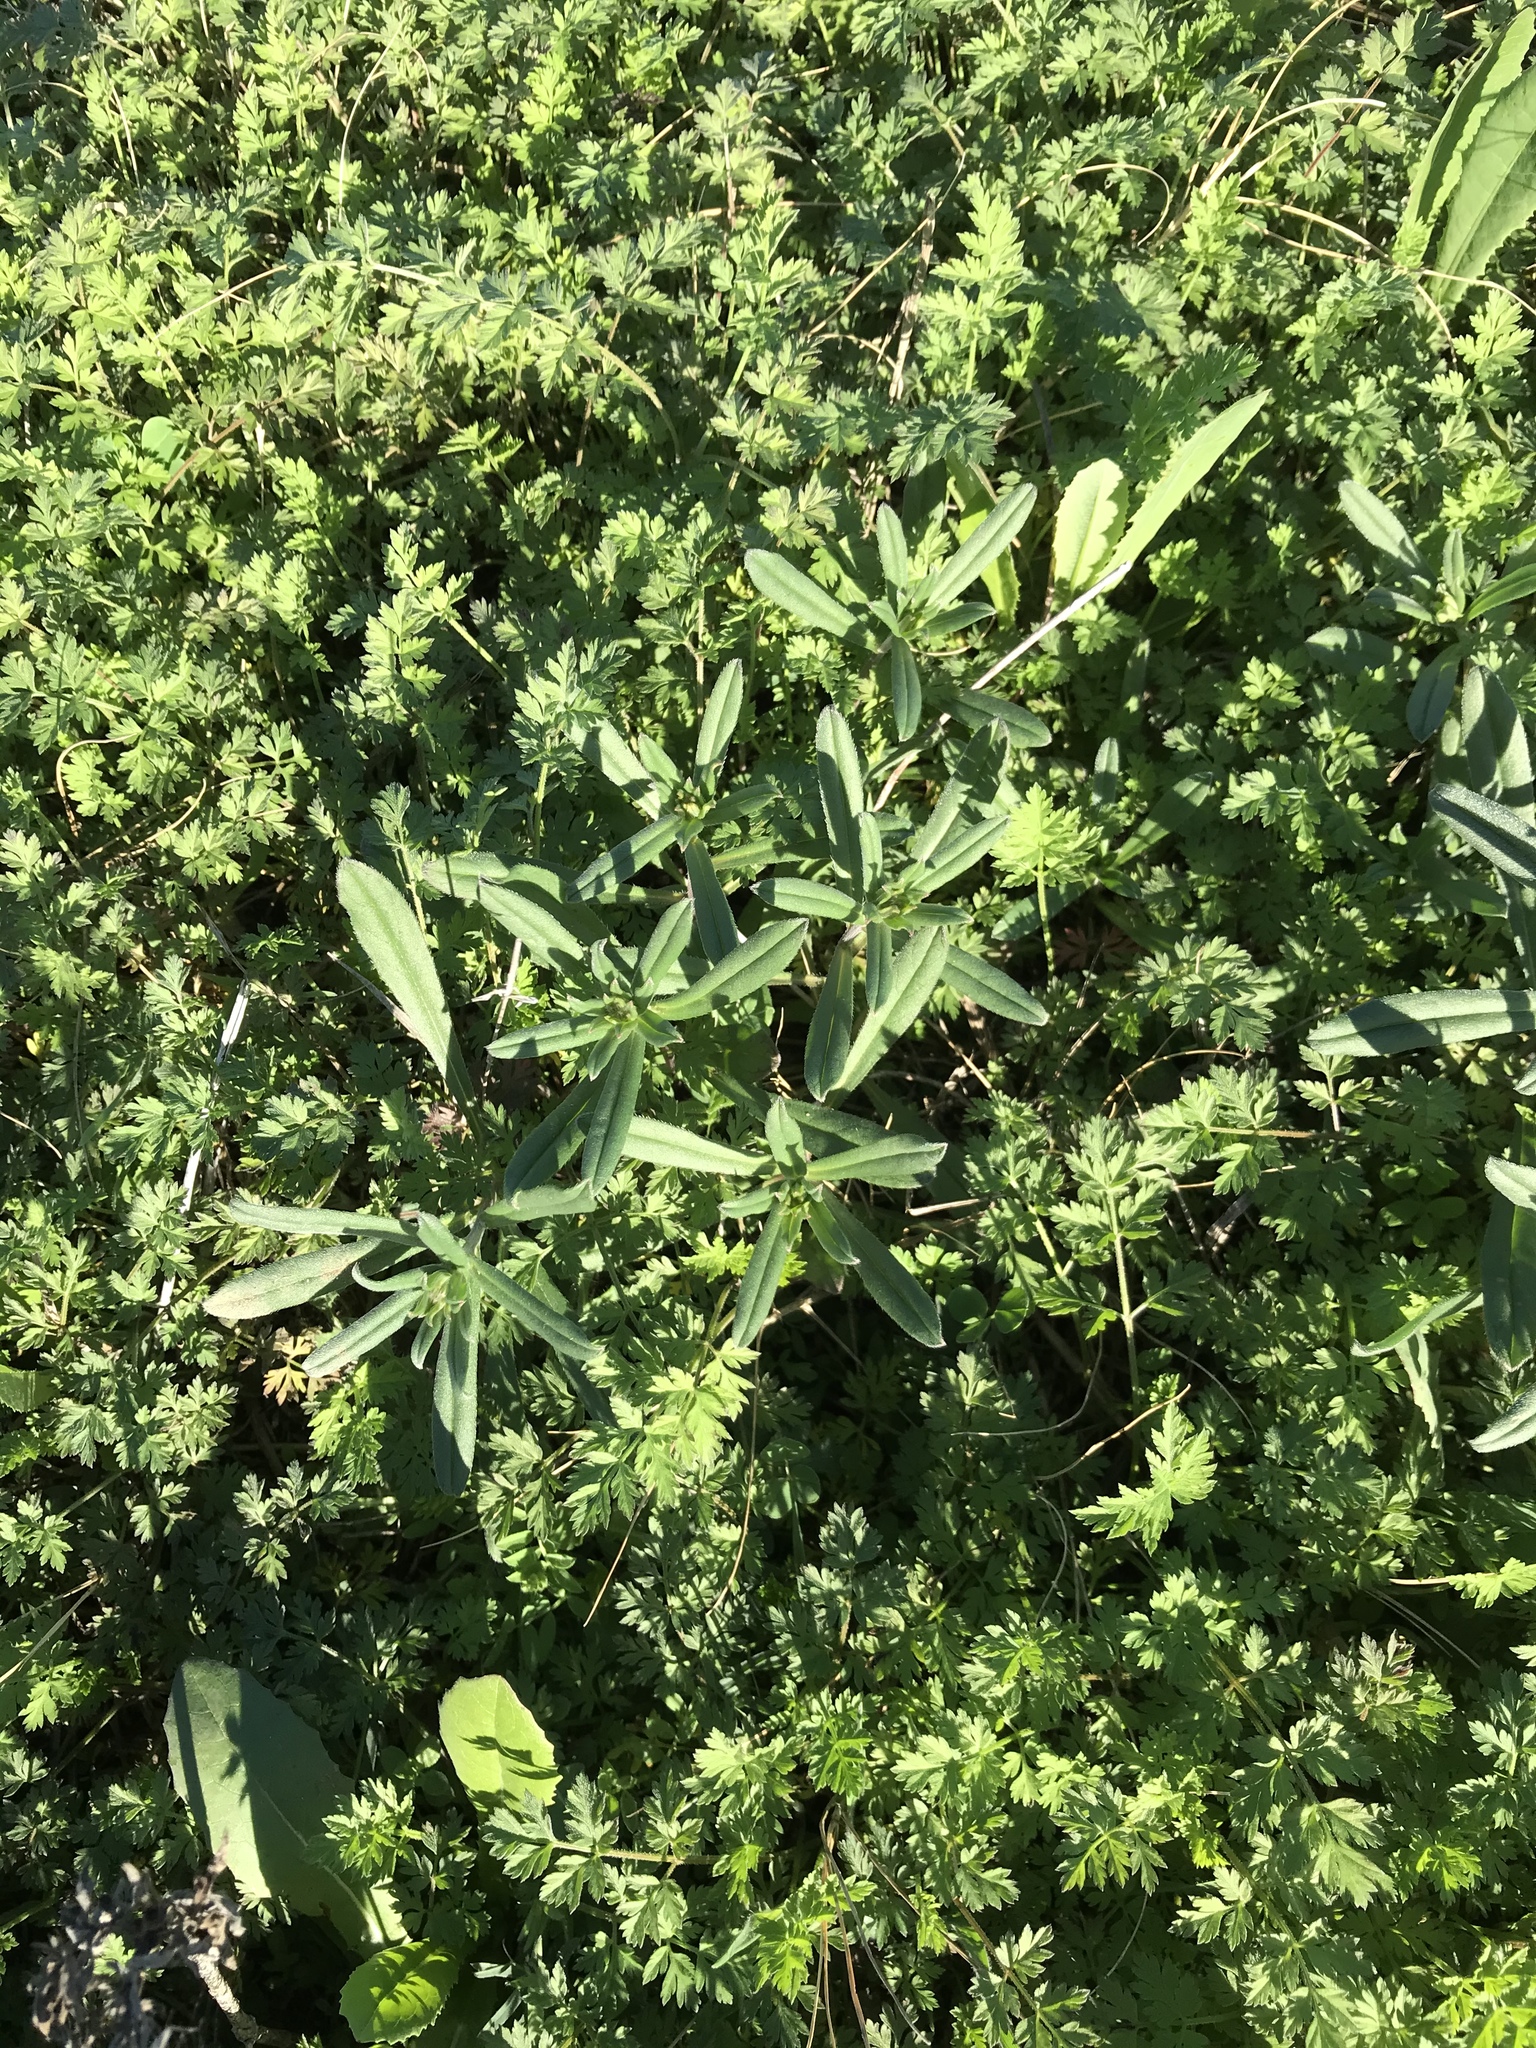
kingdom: Plantae
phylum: Tracheophyta
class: Magnoliopsida
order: Boraginales
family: Boraginaceae
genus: Buglossoides
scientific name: Buglossoides arvensis
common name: Corn gromwell
